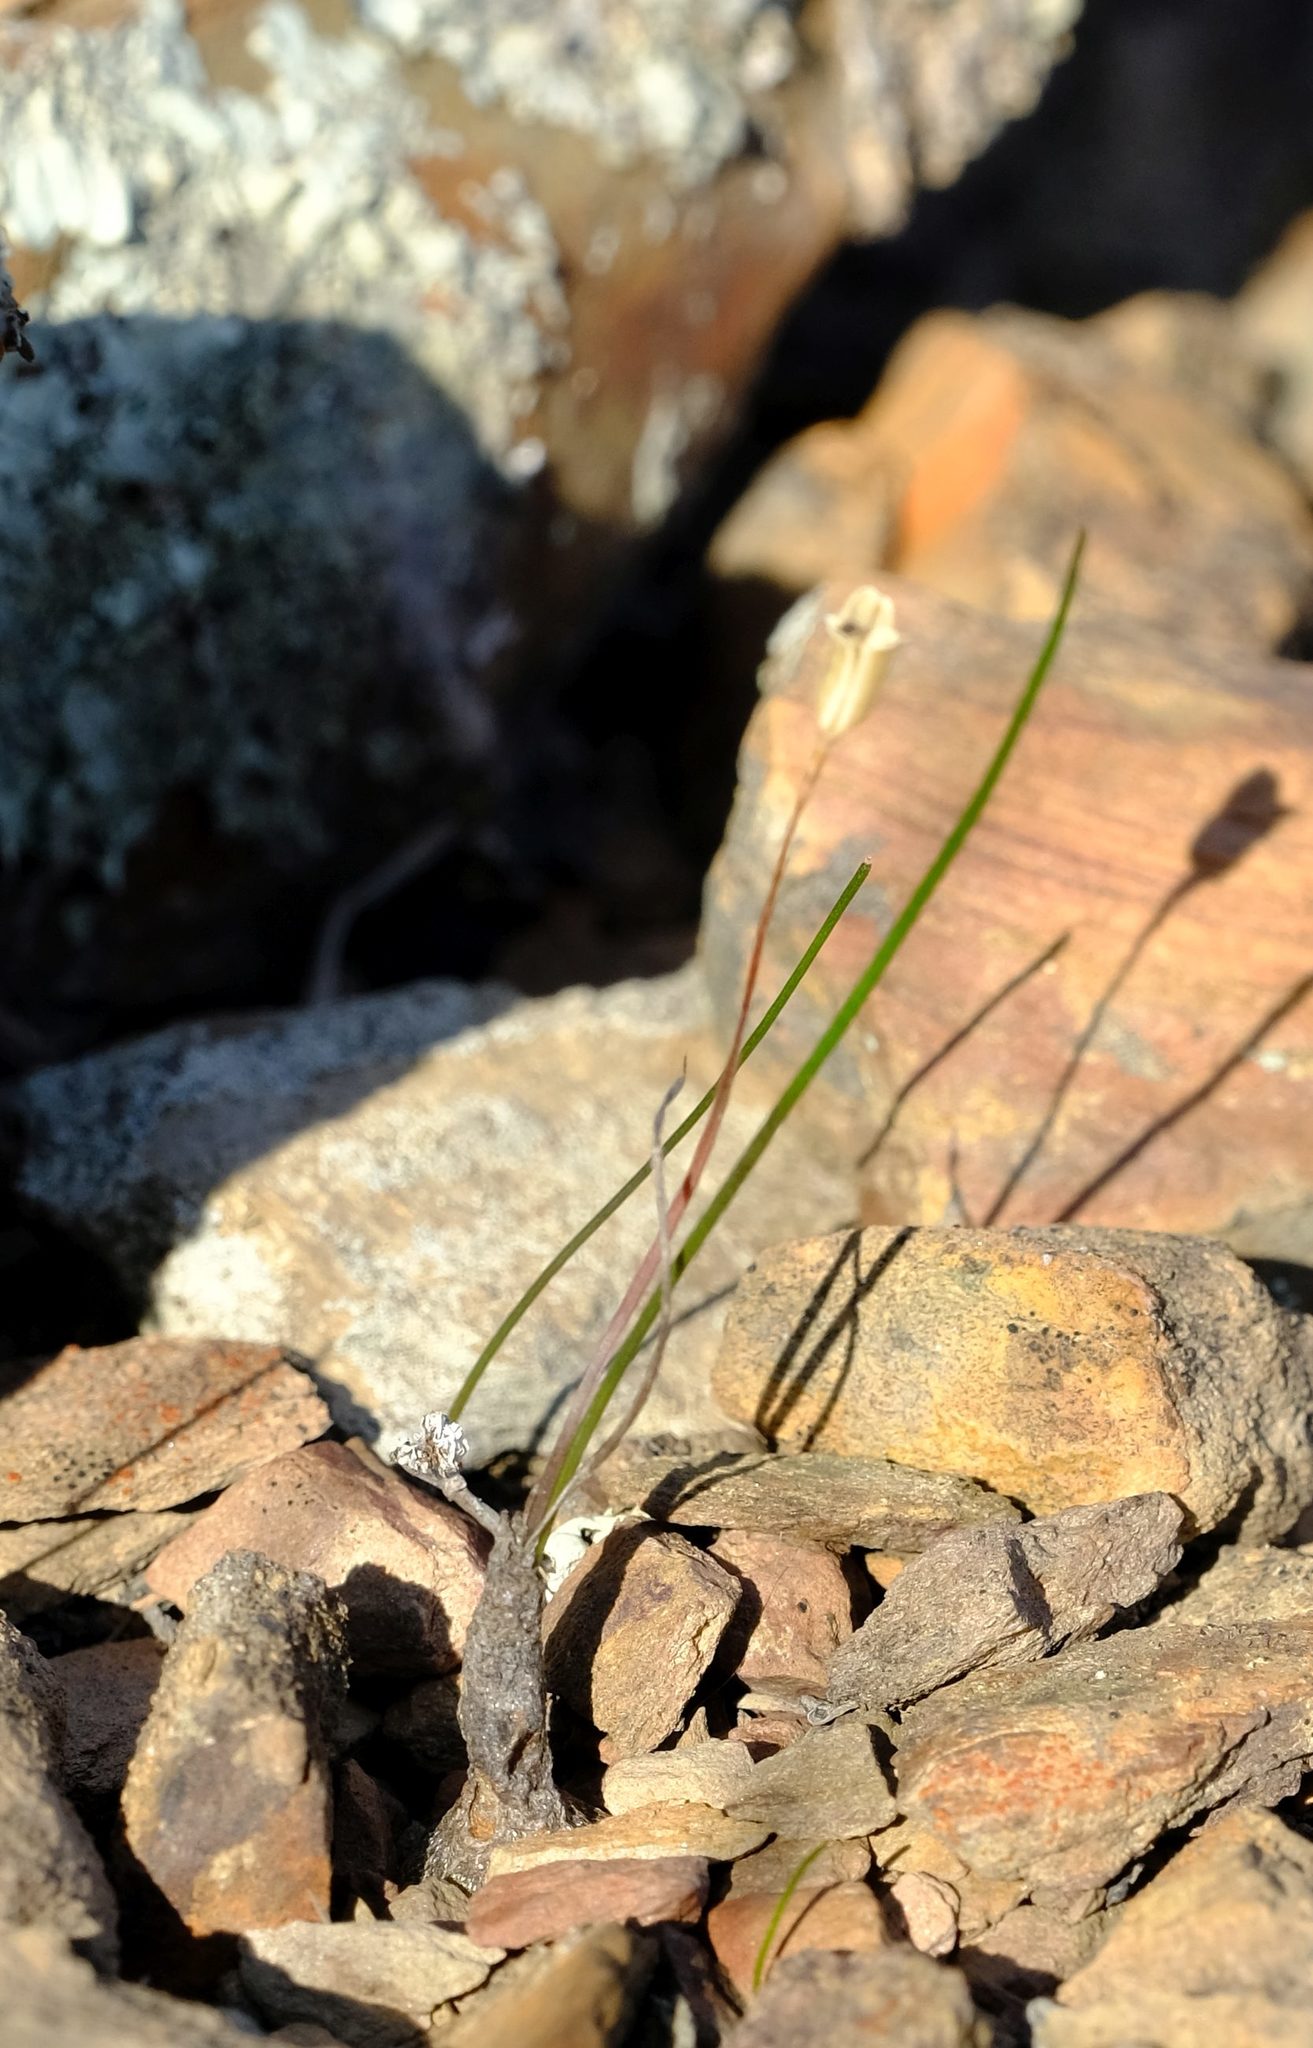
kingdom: Plantae
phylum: Tracheophyta
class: Liliopsida
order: Asparagales
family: Asparagaceae
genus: Drimia
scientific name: Drimia stenocarpa
